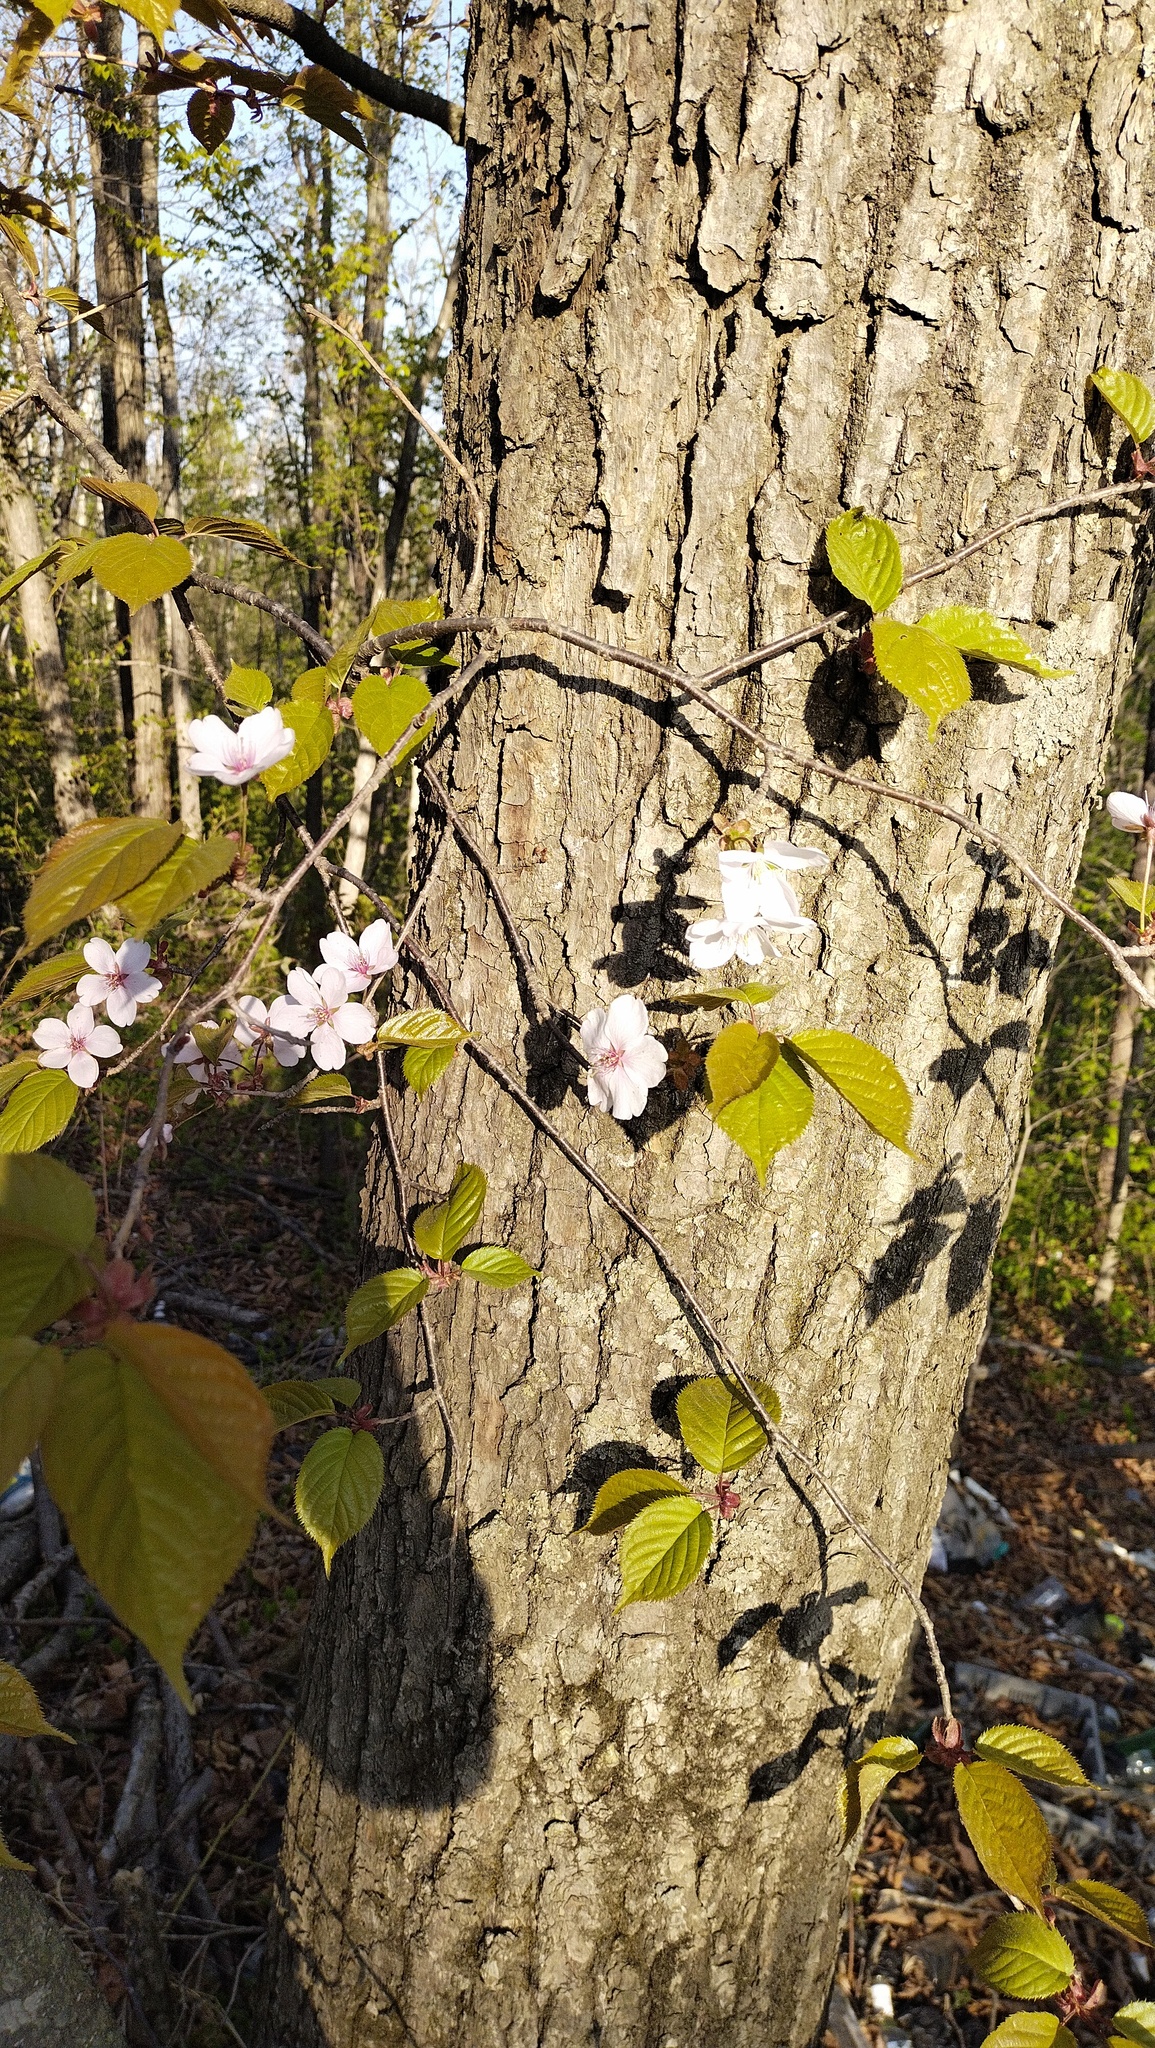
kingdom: Plantae
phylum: Tracheophyta
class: Magnoliopsida
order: Rosales
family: Rosaceae
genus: Prunus
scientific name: Prunus sargentii
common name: Sargent cherry
